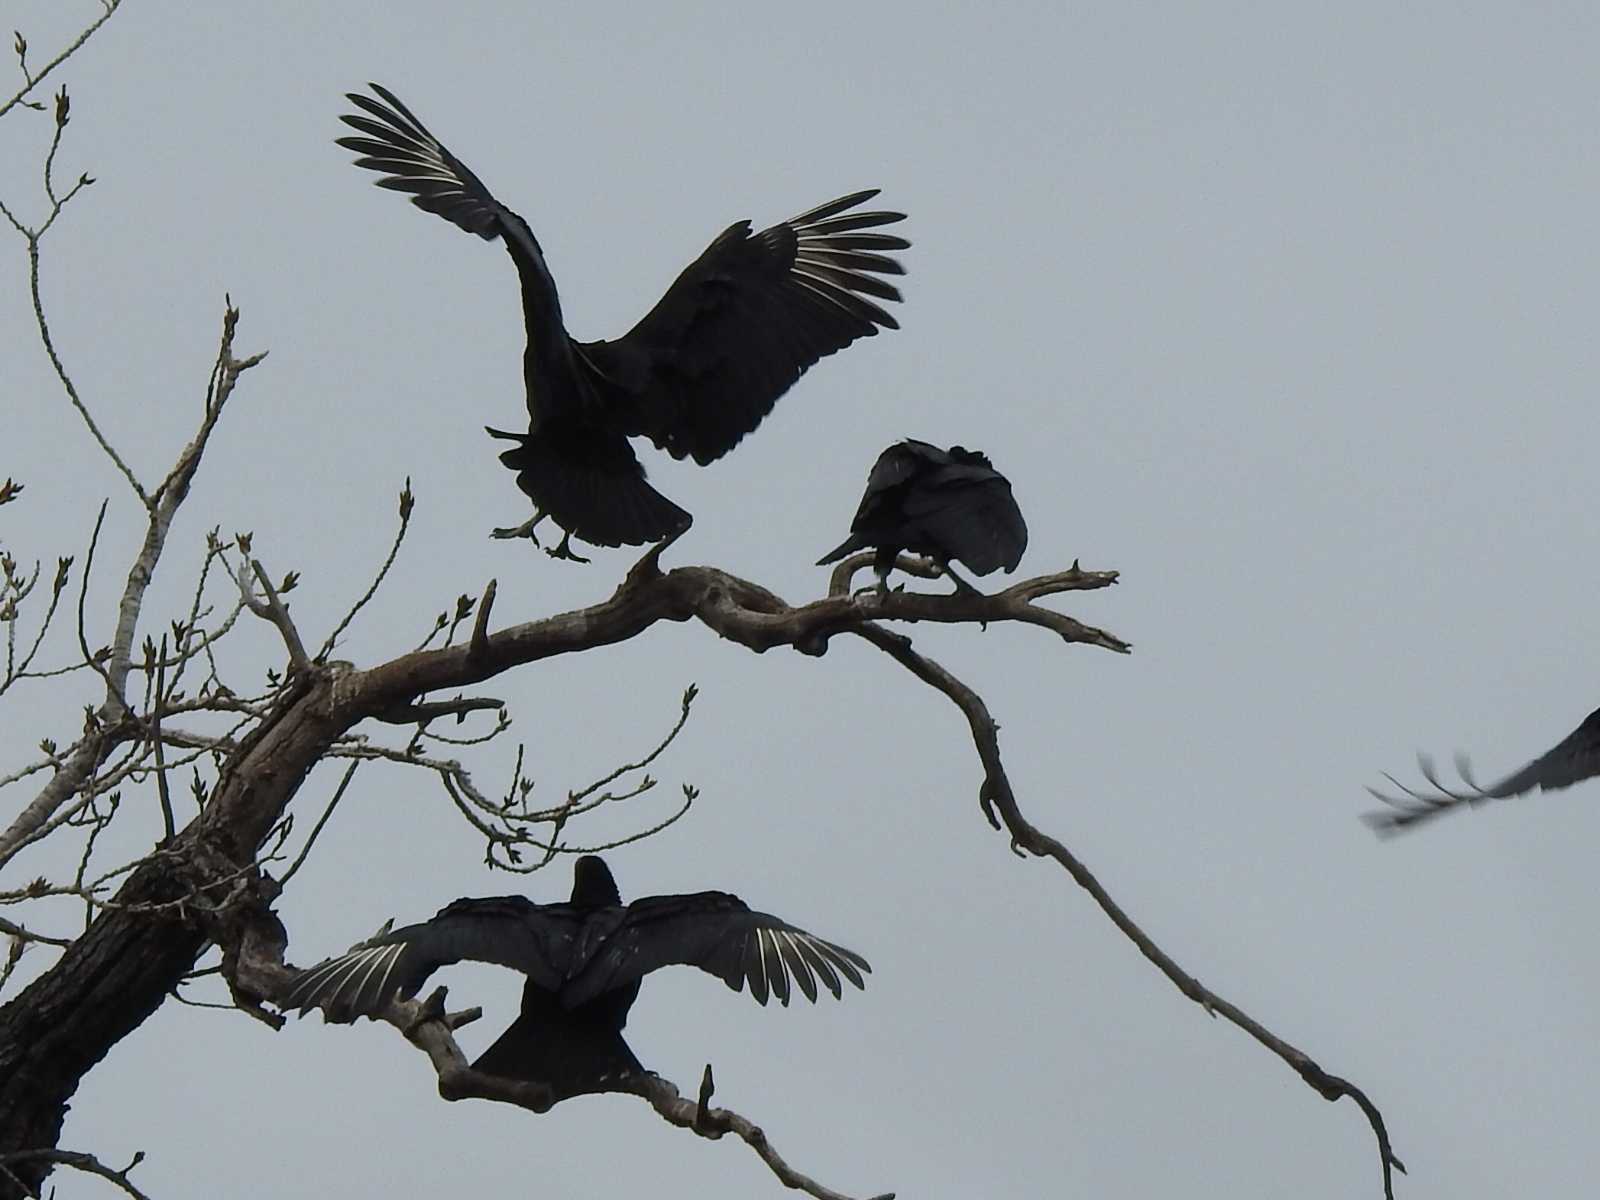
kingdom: Animalia
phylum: Chordata
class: Aves
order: Accipitriformes
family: Cathartidae
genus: Coragyps
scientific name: Coragyps atratus
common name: Black vulture
